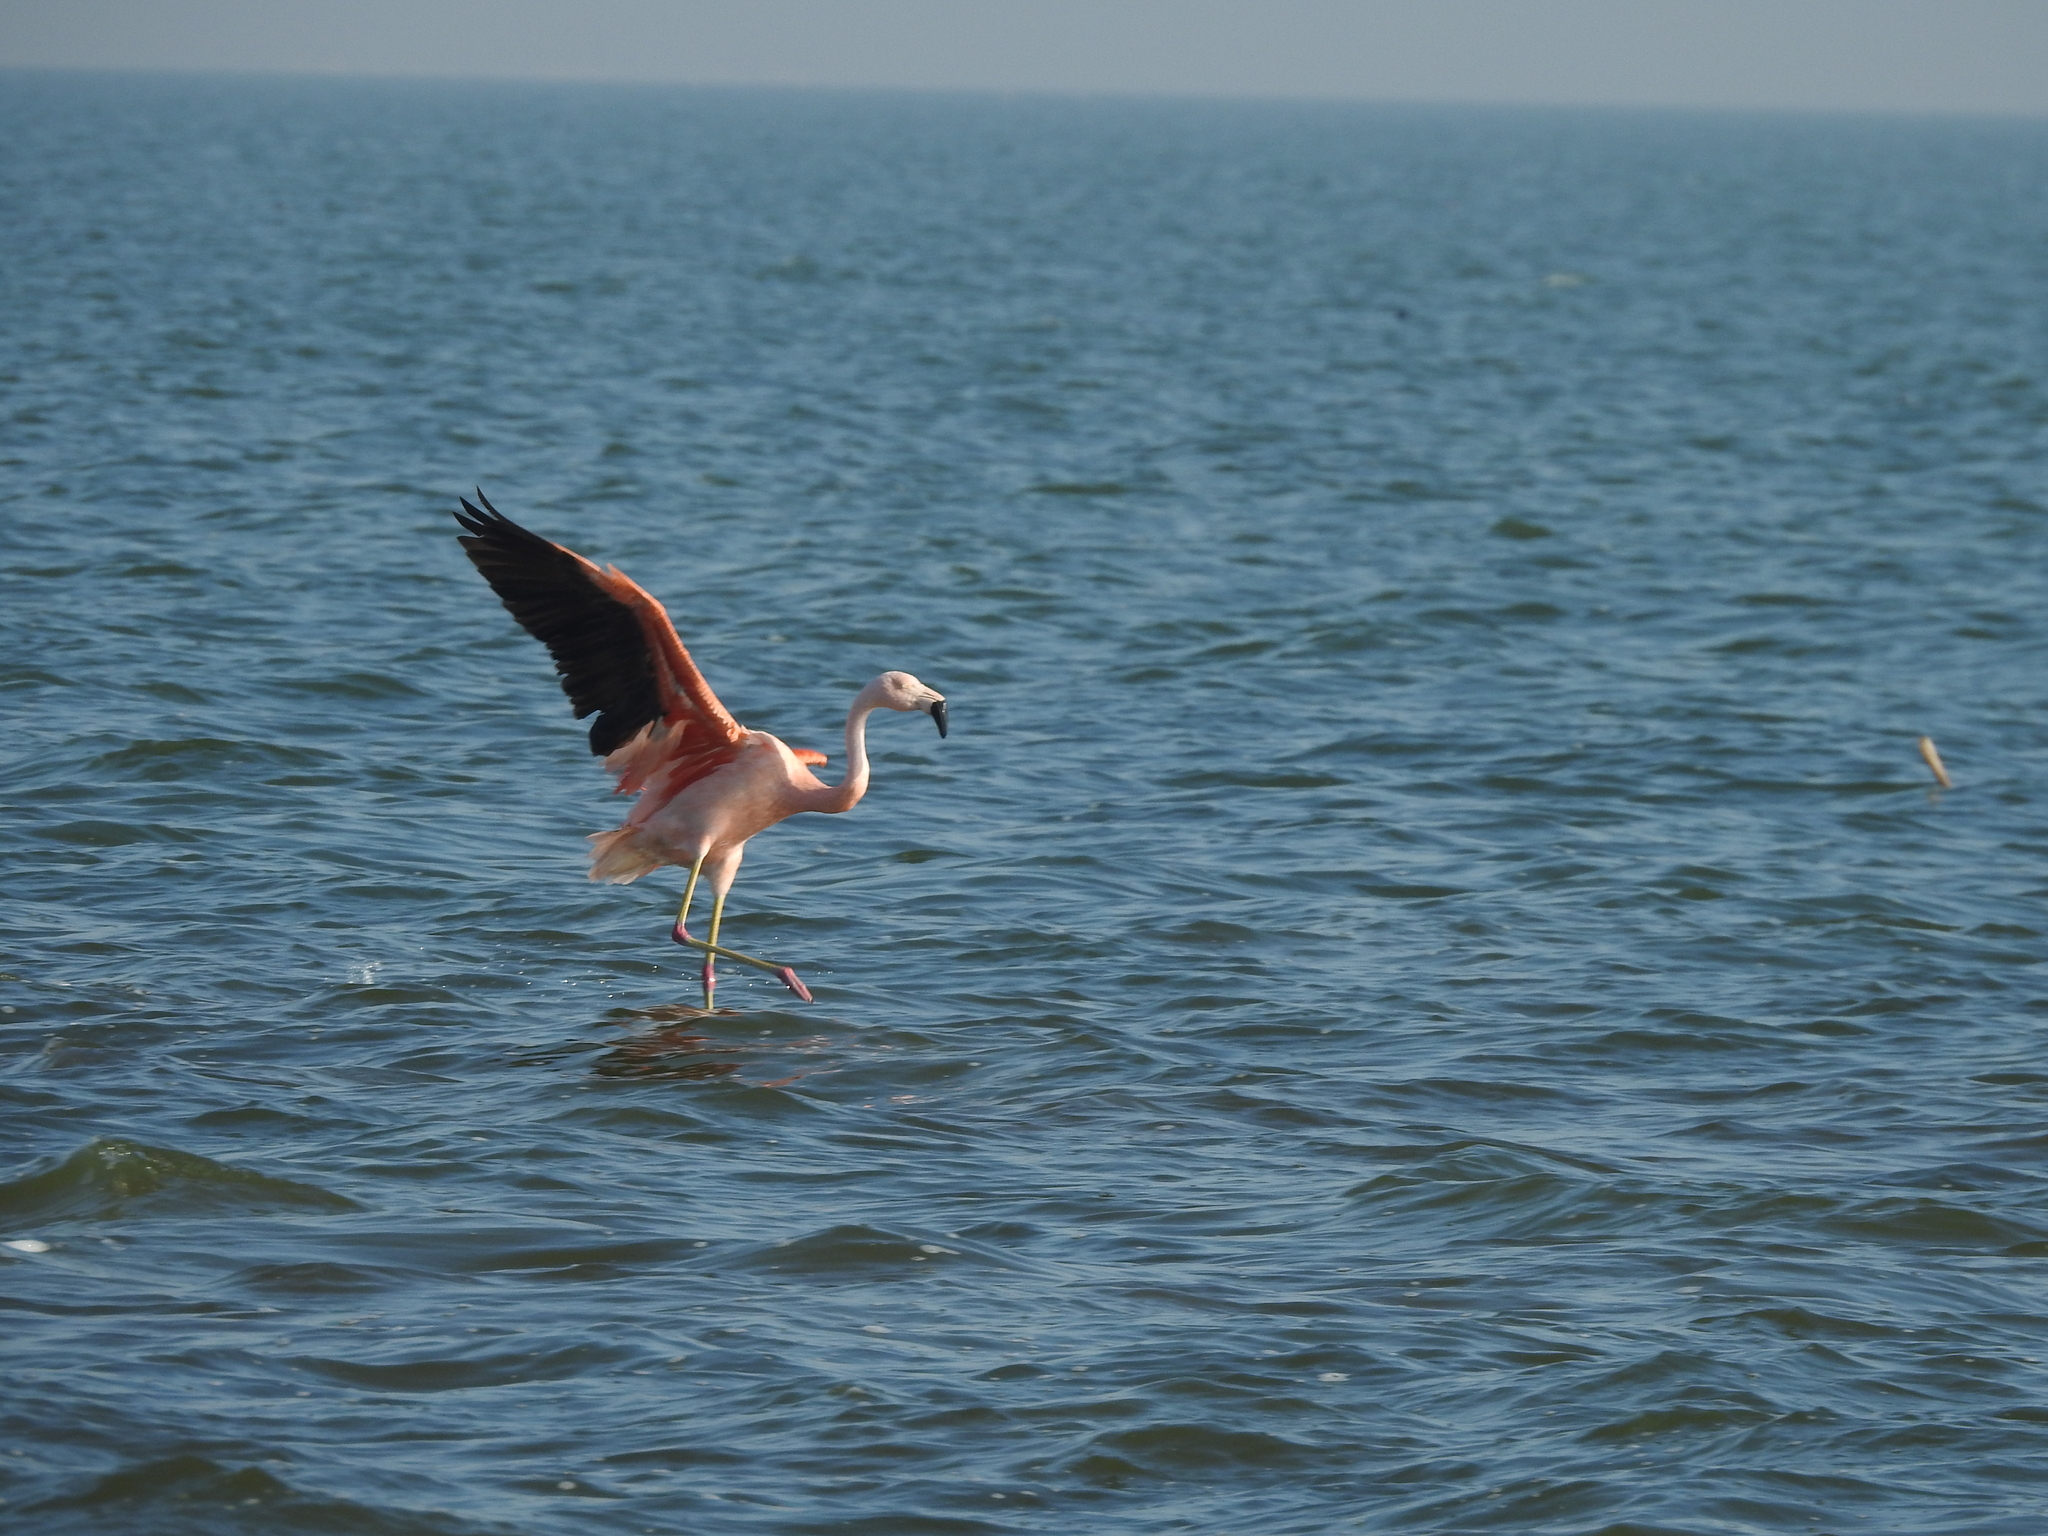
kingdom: Animalia
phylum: Chordata
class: Aves
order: Phoenicopteriformes
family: Phoenicopteridae
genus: Phoenicopterus
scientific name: Phoenicopterus chilensis
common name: Chilean flamingo
